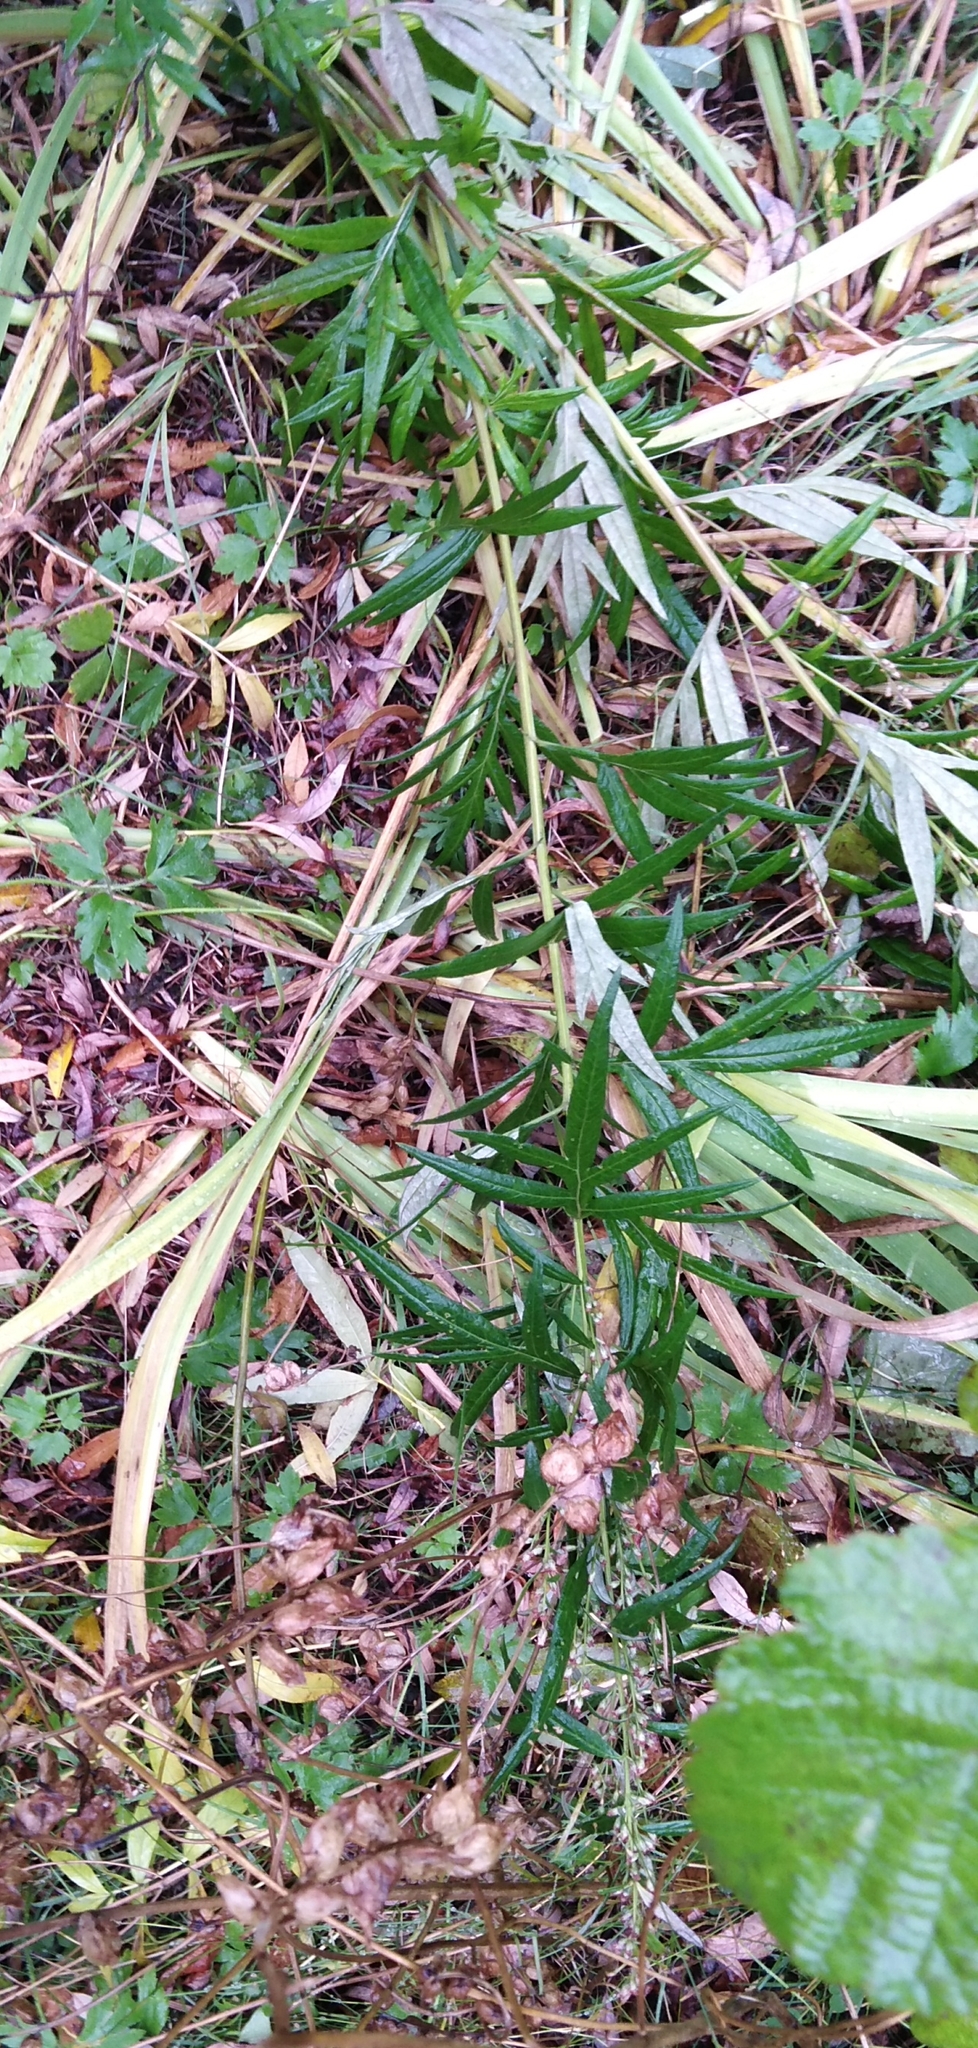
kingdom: Plantae
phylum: Tracheophyta
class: Magnoliopsida
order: Asterales
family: Asteraceae
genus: Artemisia
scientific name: Artemisia vulgaris
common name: Mugwort
